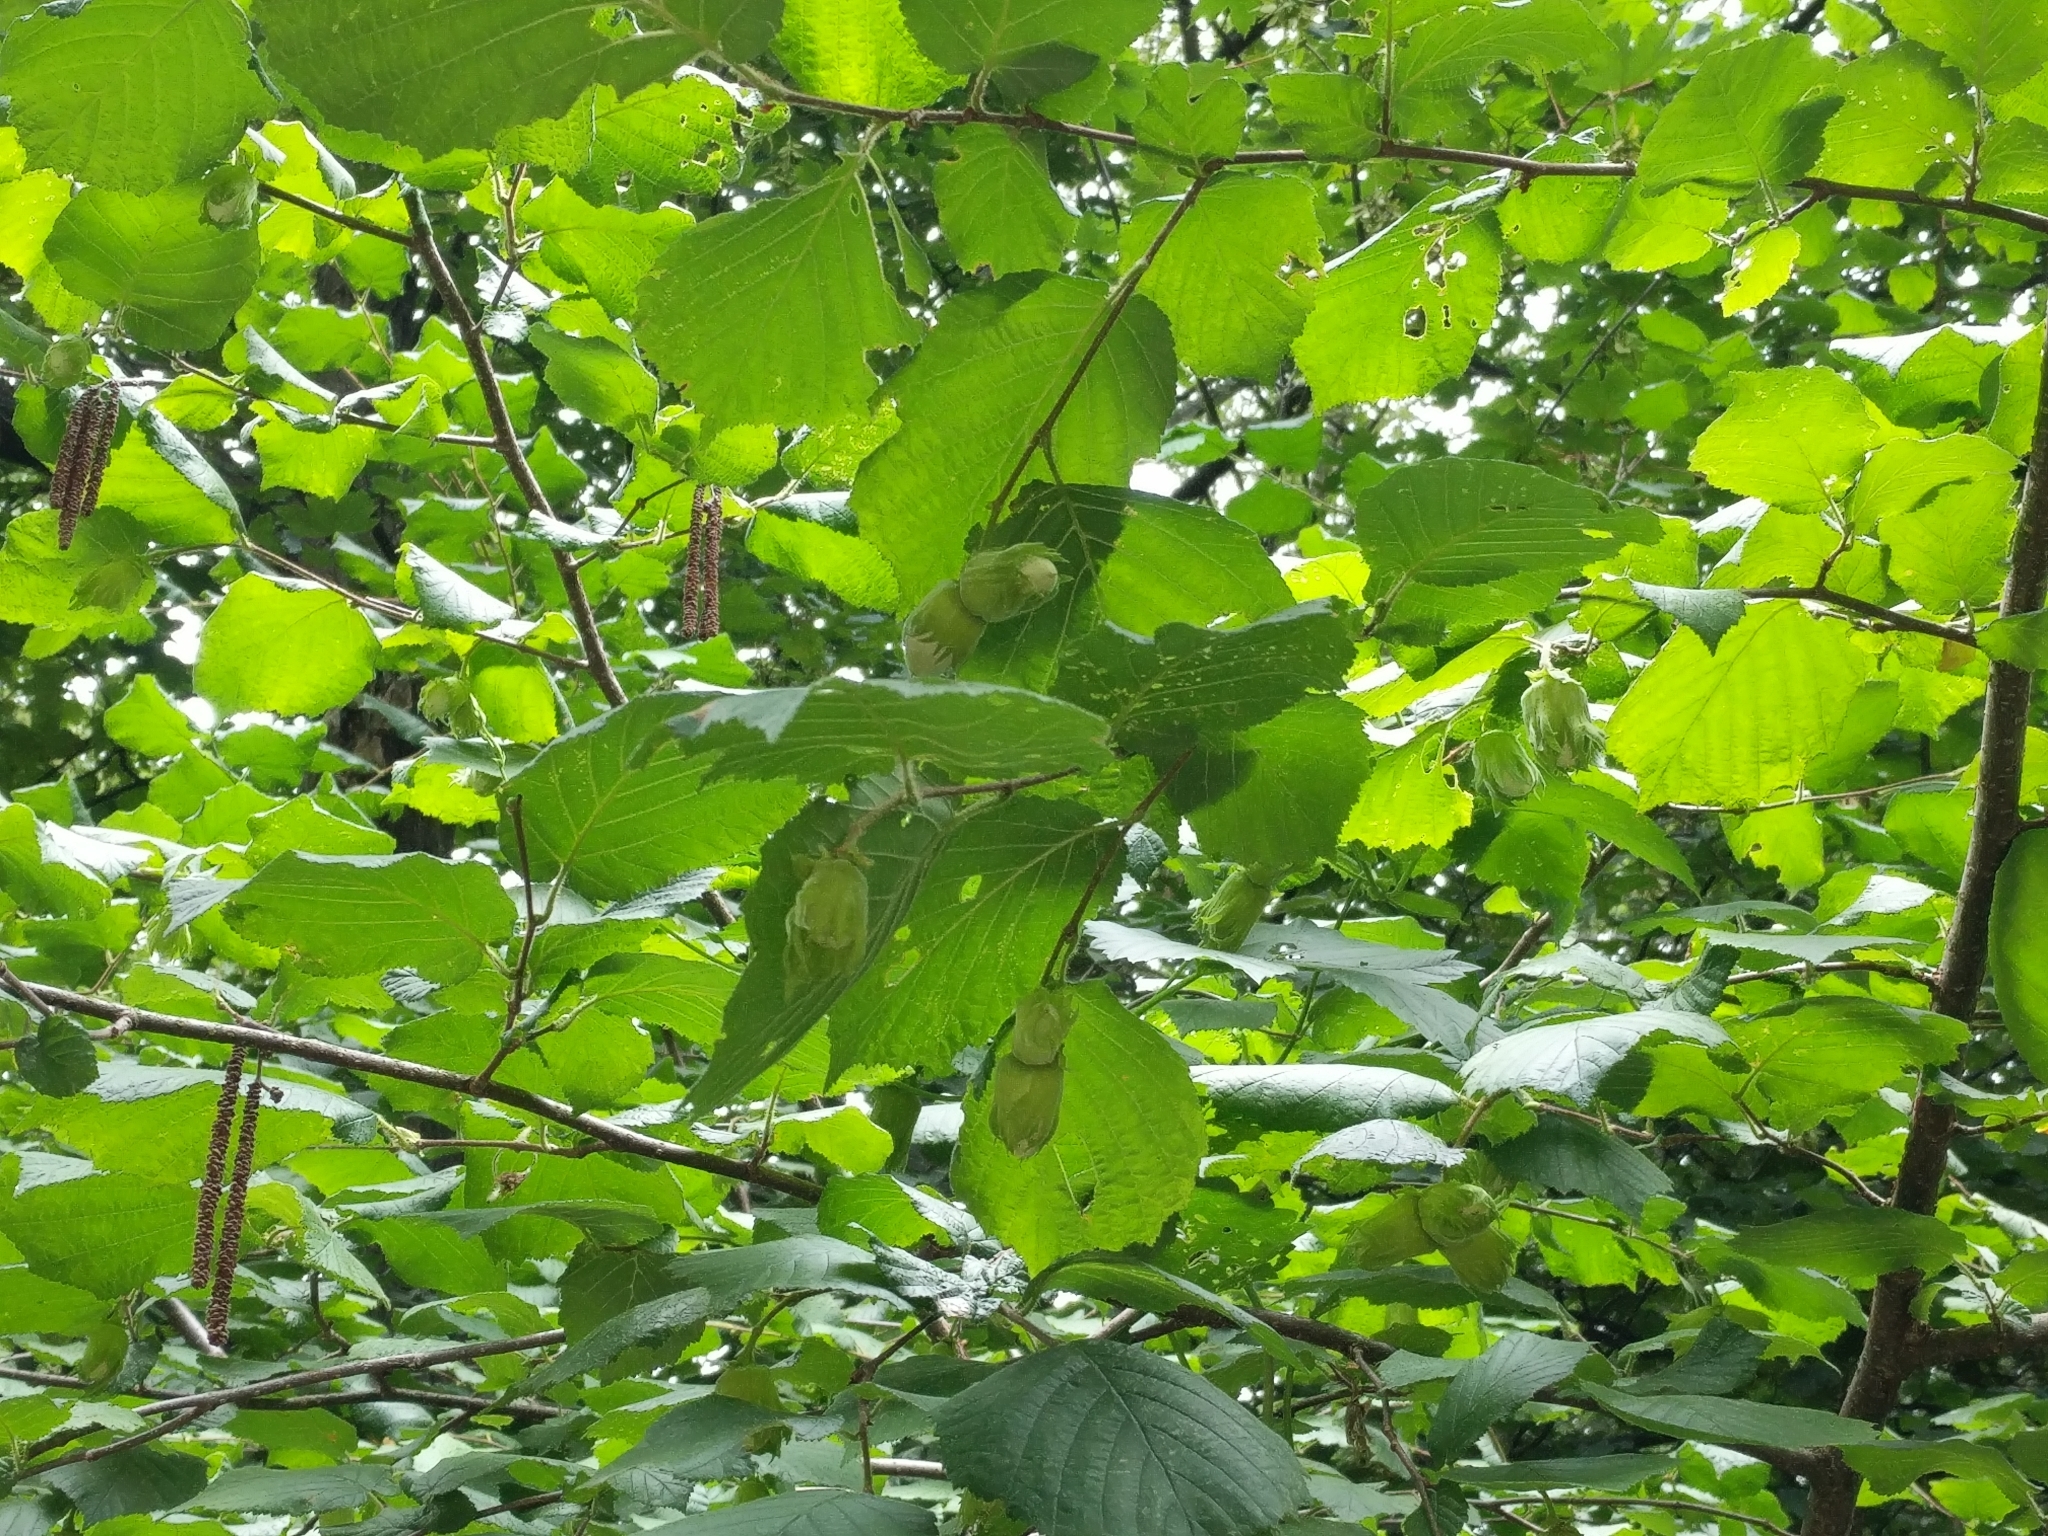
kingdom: Plantae
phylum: Tracheophyta
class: Magnoliopsida
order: Fagales
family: Betulaceae
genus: Corylus
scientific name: Corylus avellana
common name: European hazel
